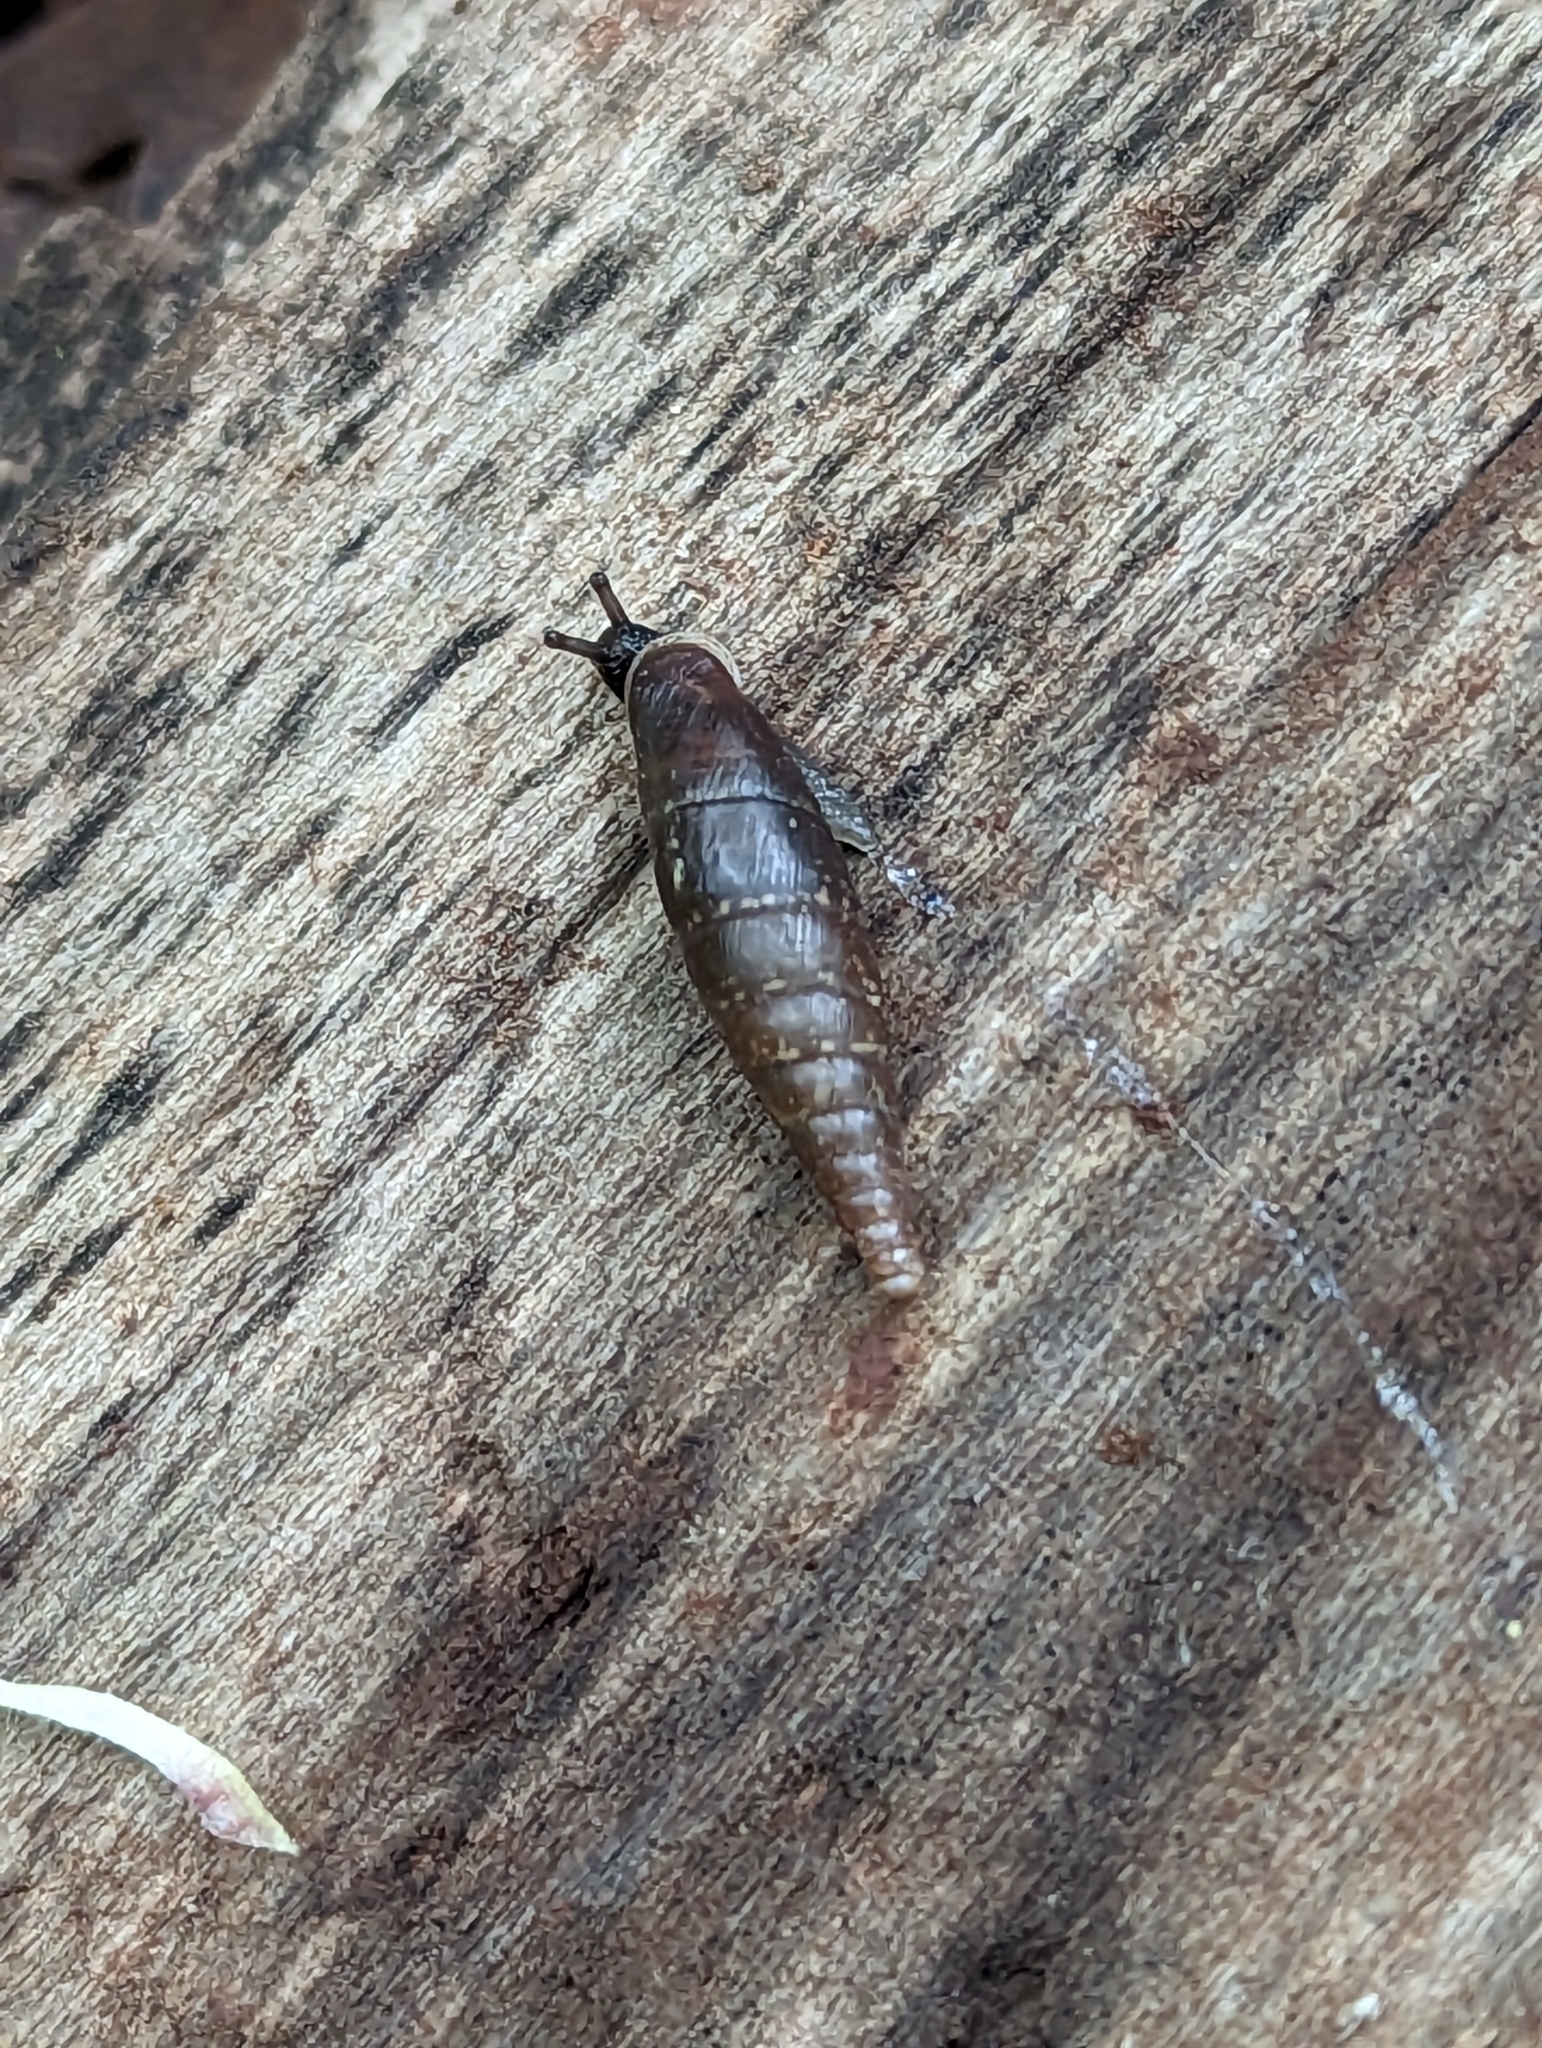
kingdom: Animalia
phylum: Mollusca
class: Gastropoda
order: Stylommatophora
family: Clausiliidae
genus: Cochlodina
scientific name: Cochlodina laminata
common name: Plaited door snail
